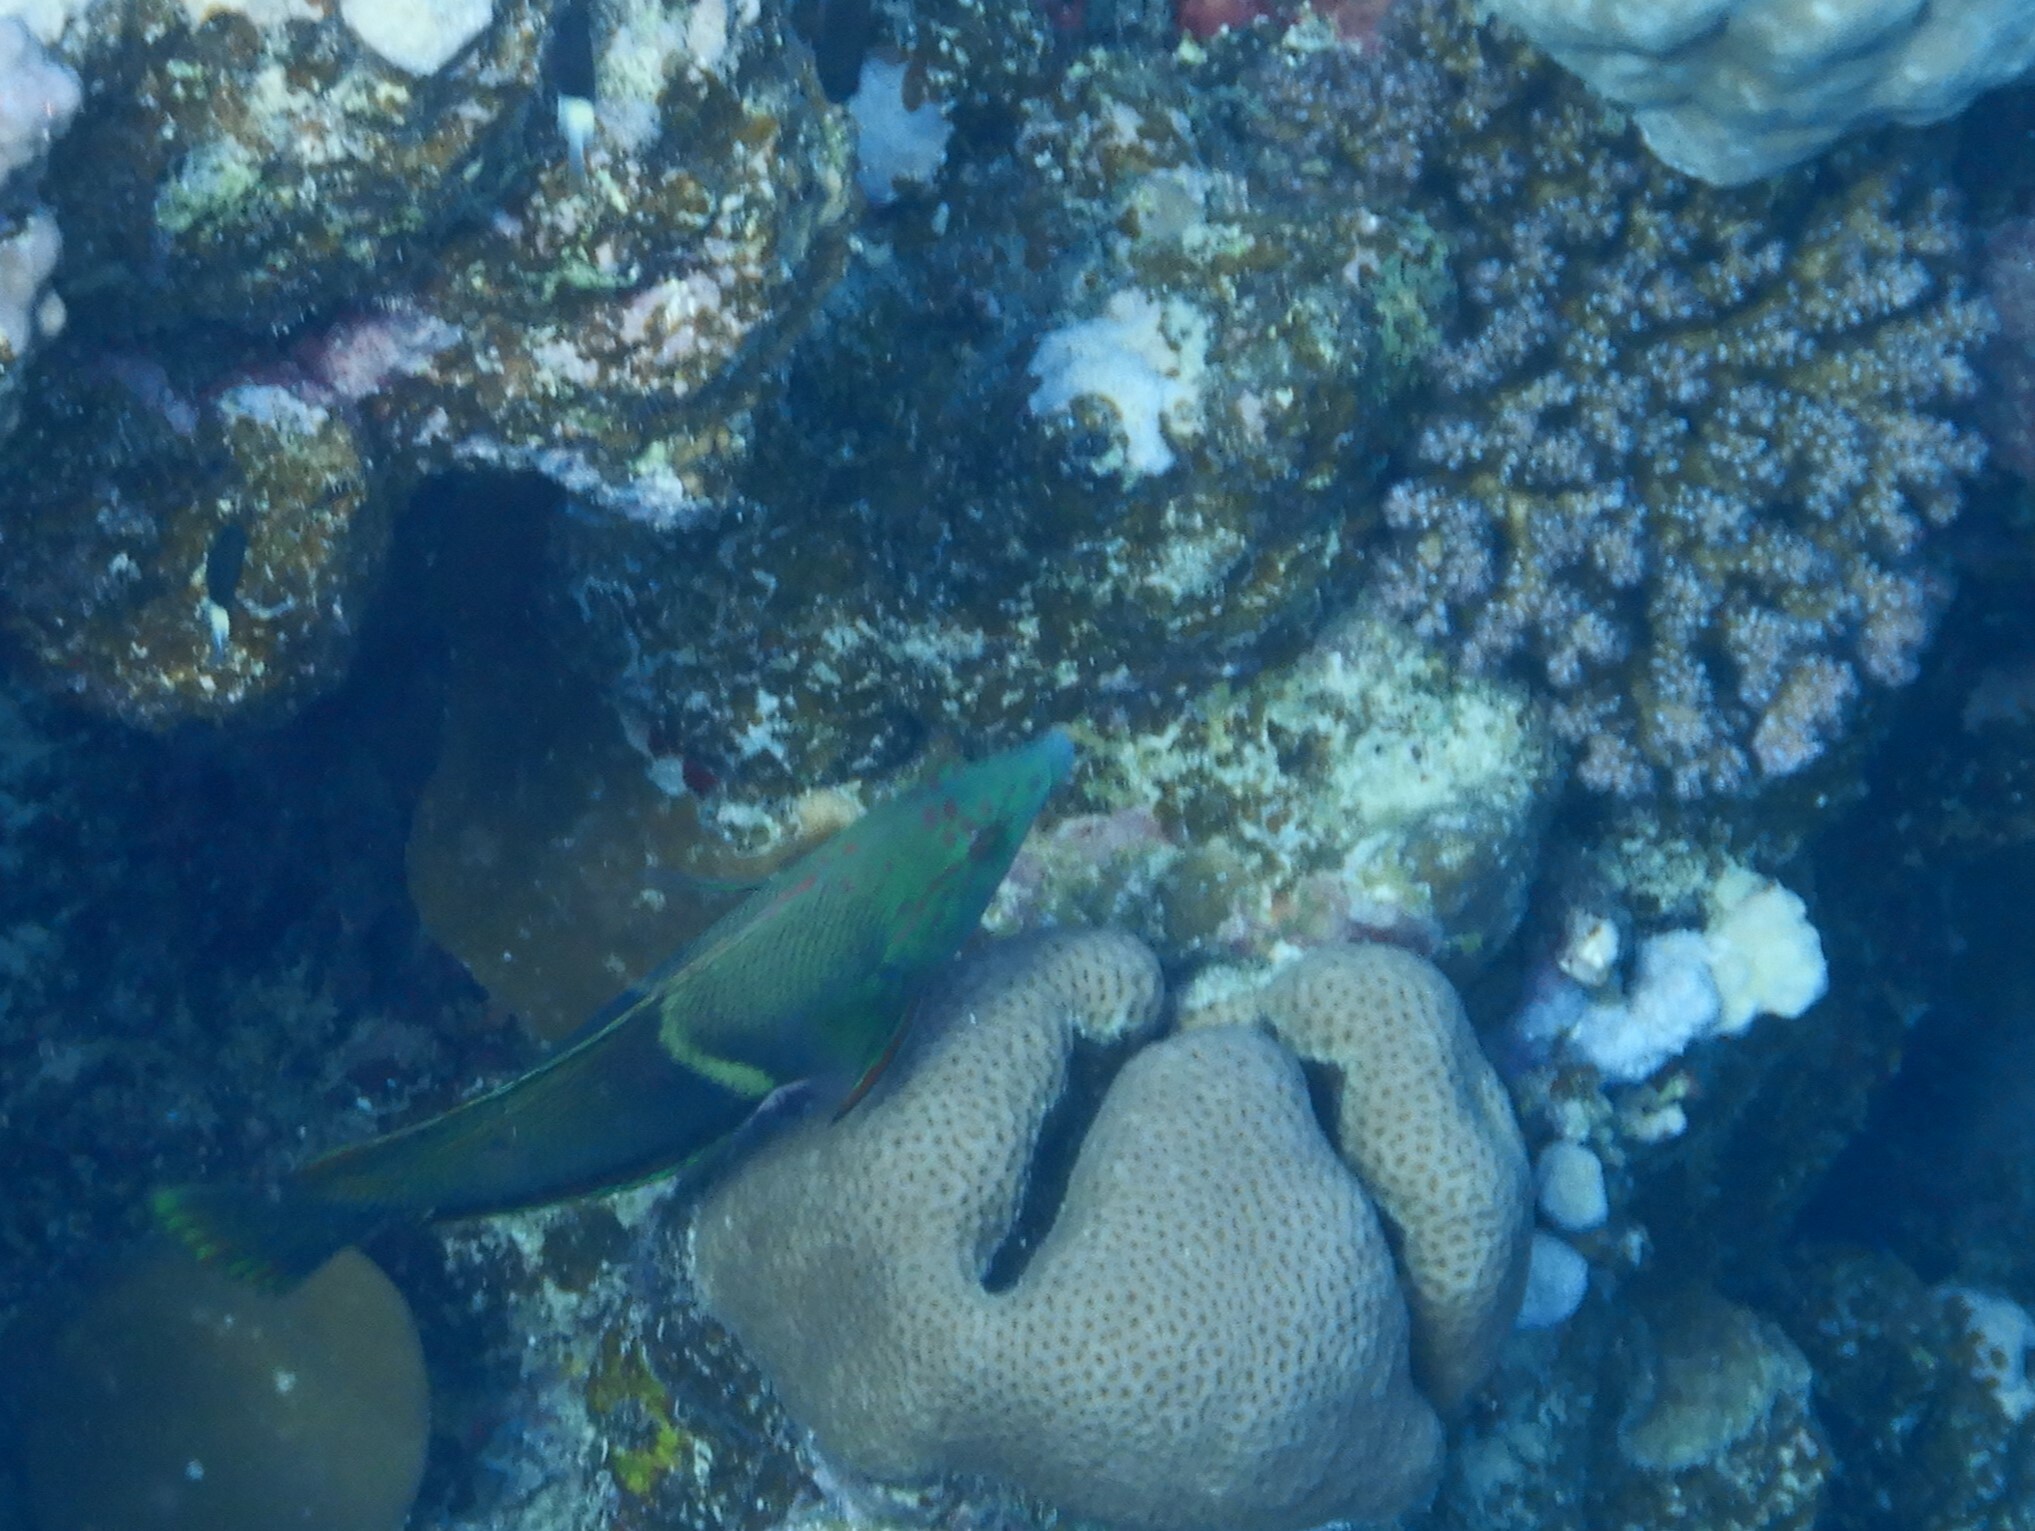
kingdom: Animalia
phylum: Chordata
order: Perciformes
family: Labridae
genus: Coris
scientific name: Coris aygula
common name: Clown coris
